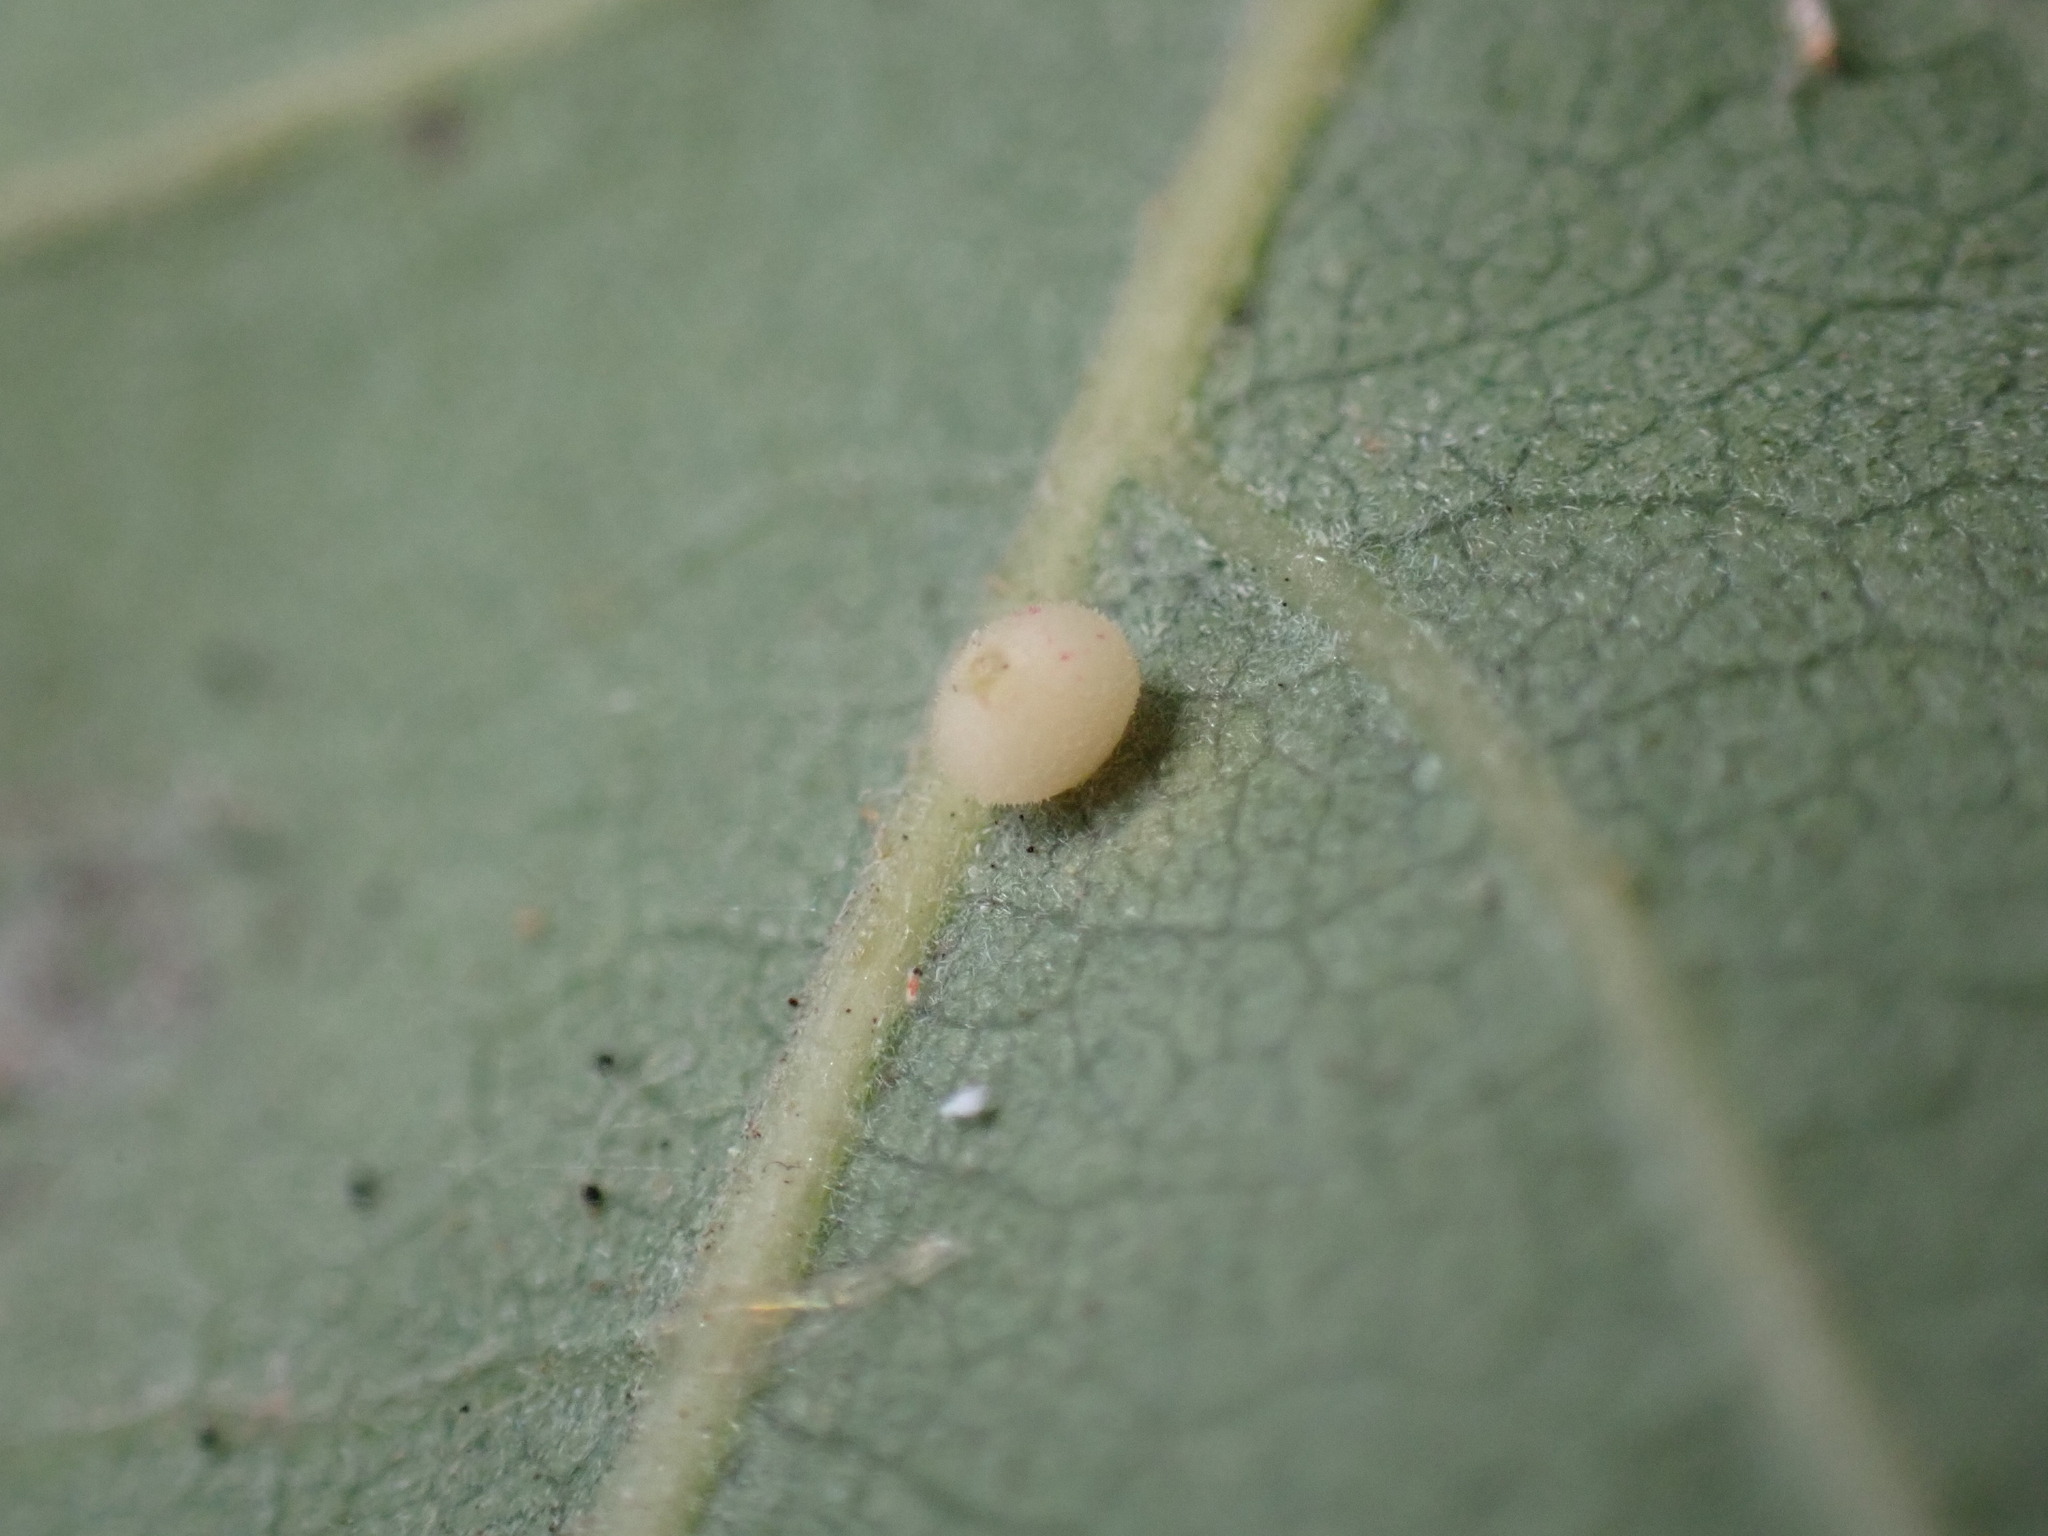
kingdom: Animalia
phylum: Arthropoda
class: Insecta
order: Hymenoptera
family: Cynipidae
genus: Neuroterus
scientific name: Neuroterus saltarius
